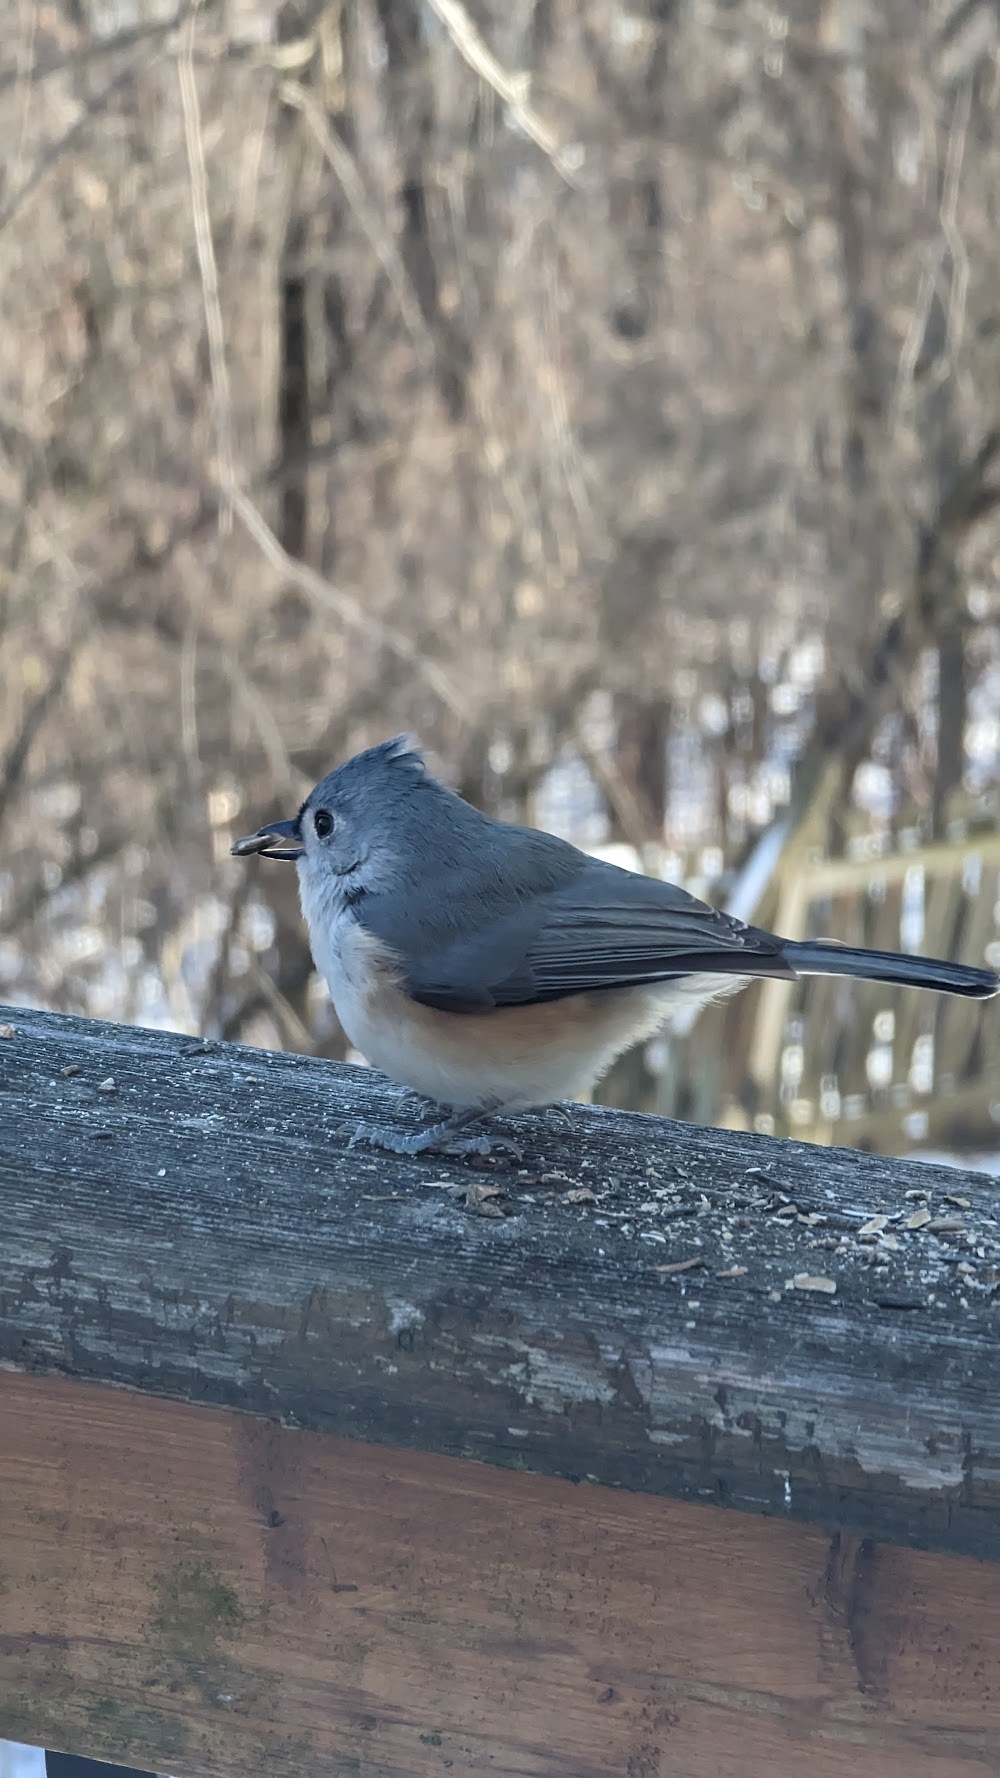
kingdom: Animalia
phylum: Chordata
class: Aves
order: Passeriformes
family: Paridae
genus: Baeolophus
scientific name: Baeolophus bicolor
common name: Tufted titmouse
